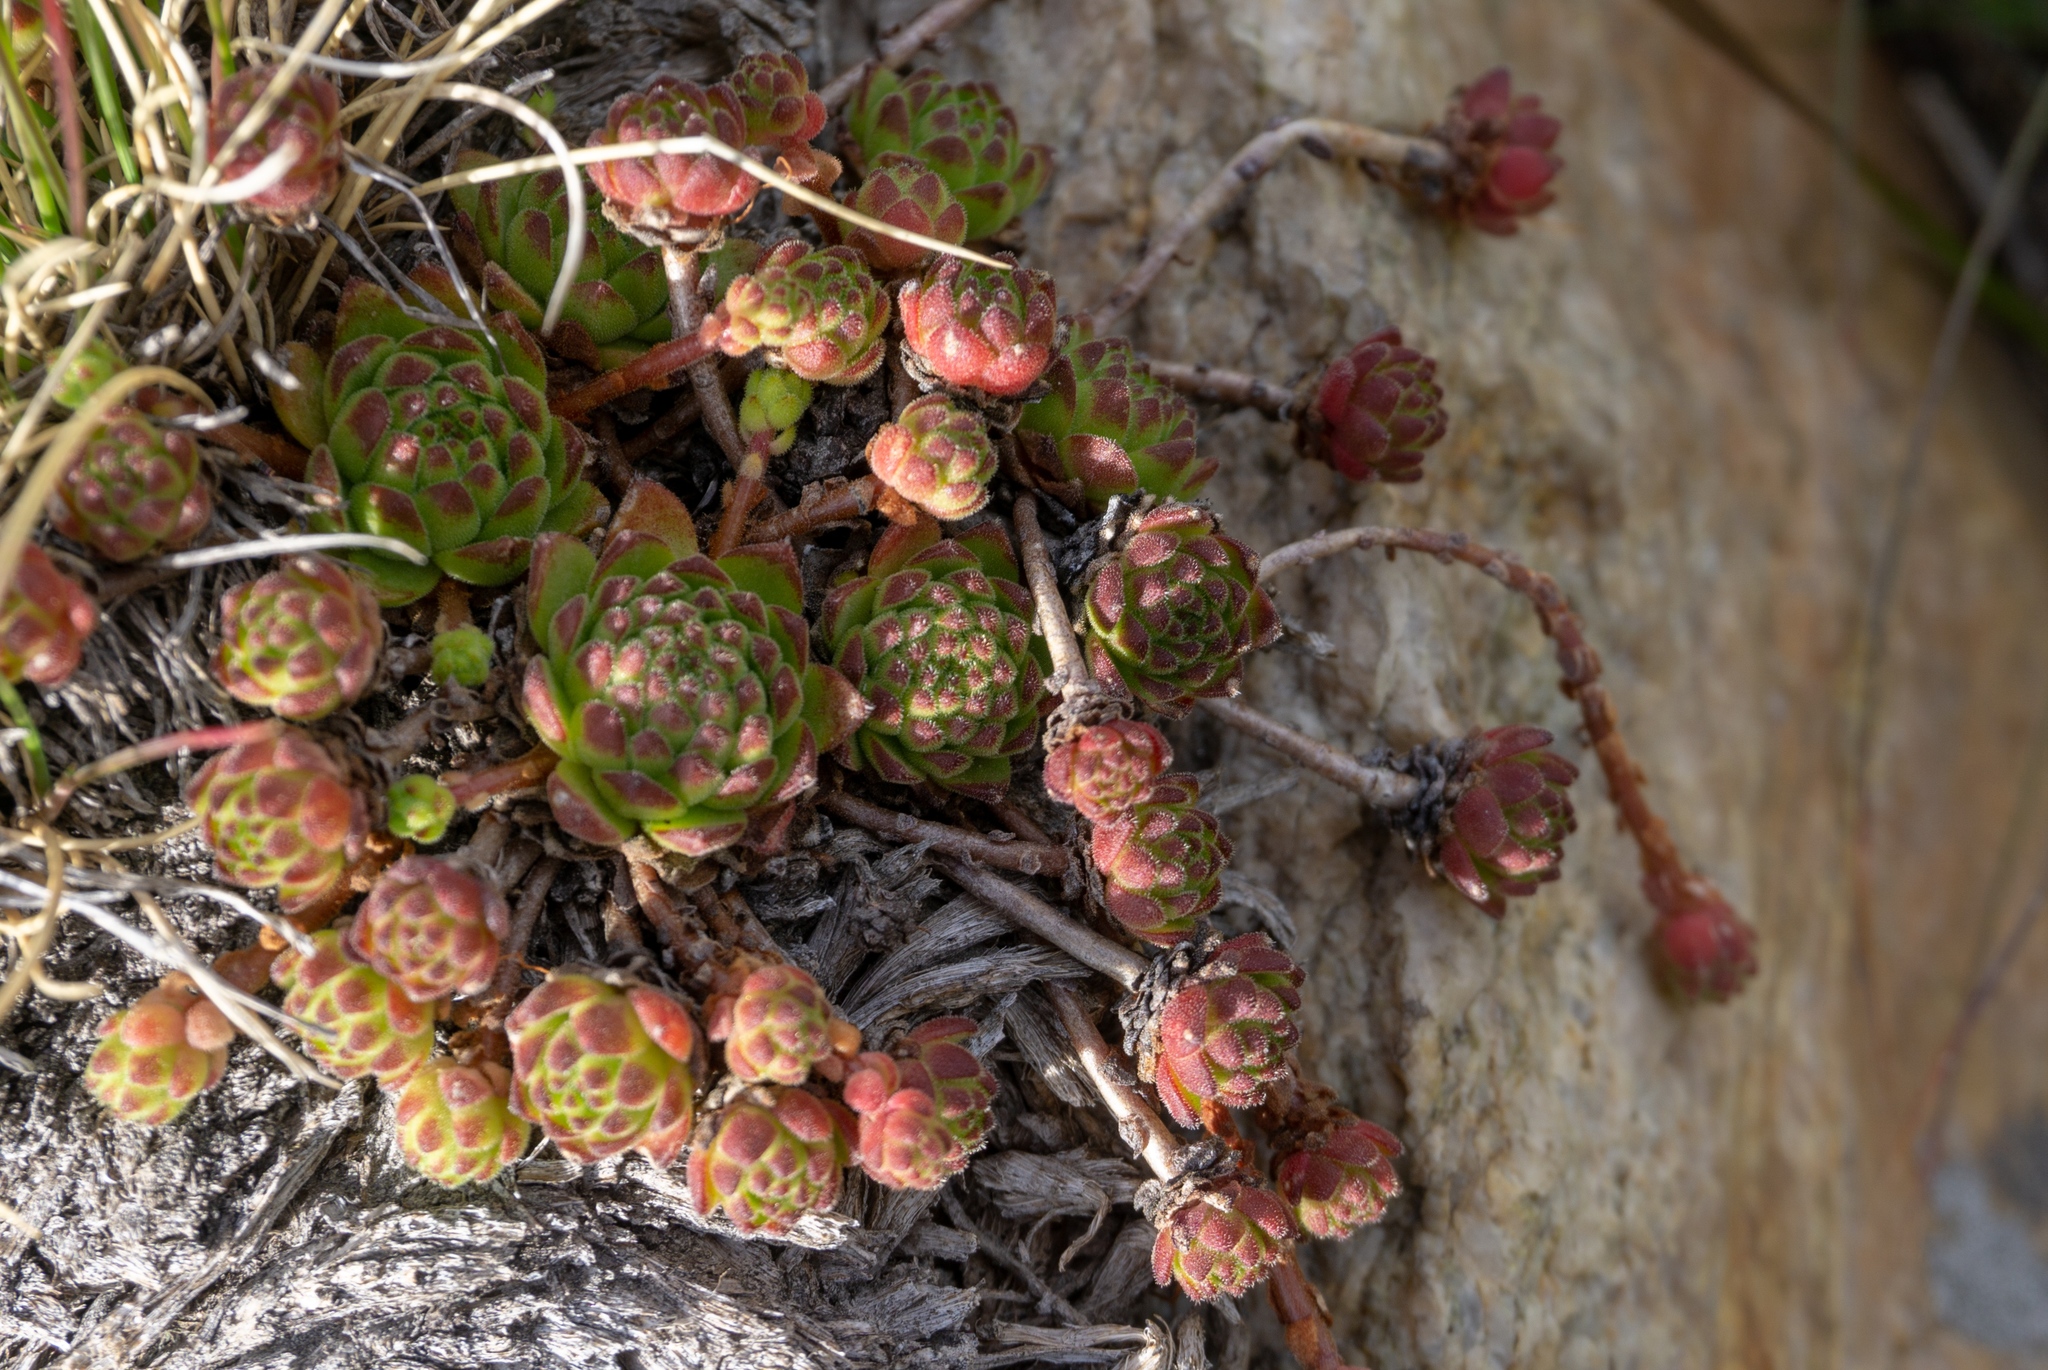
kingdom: Plantae
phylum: Tracheophyta
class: Magnoliopsida
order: Saxifragales
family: Crassulaceae
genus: Sempervivum
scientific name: Sempervivum montanum
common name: Mountain house-leek
